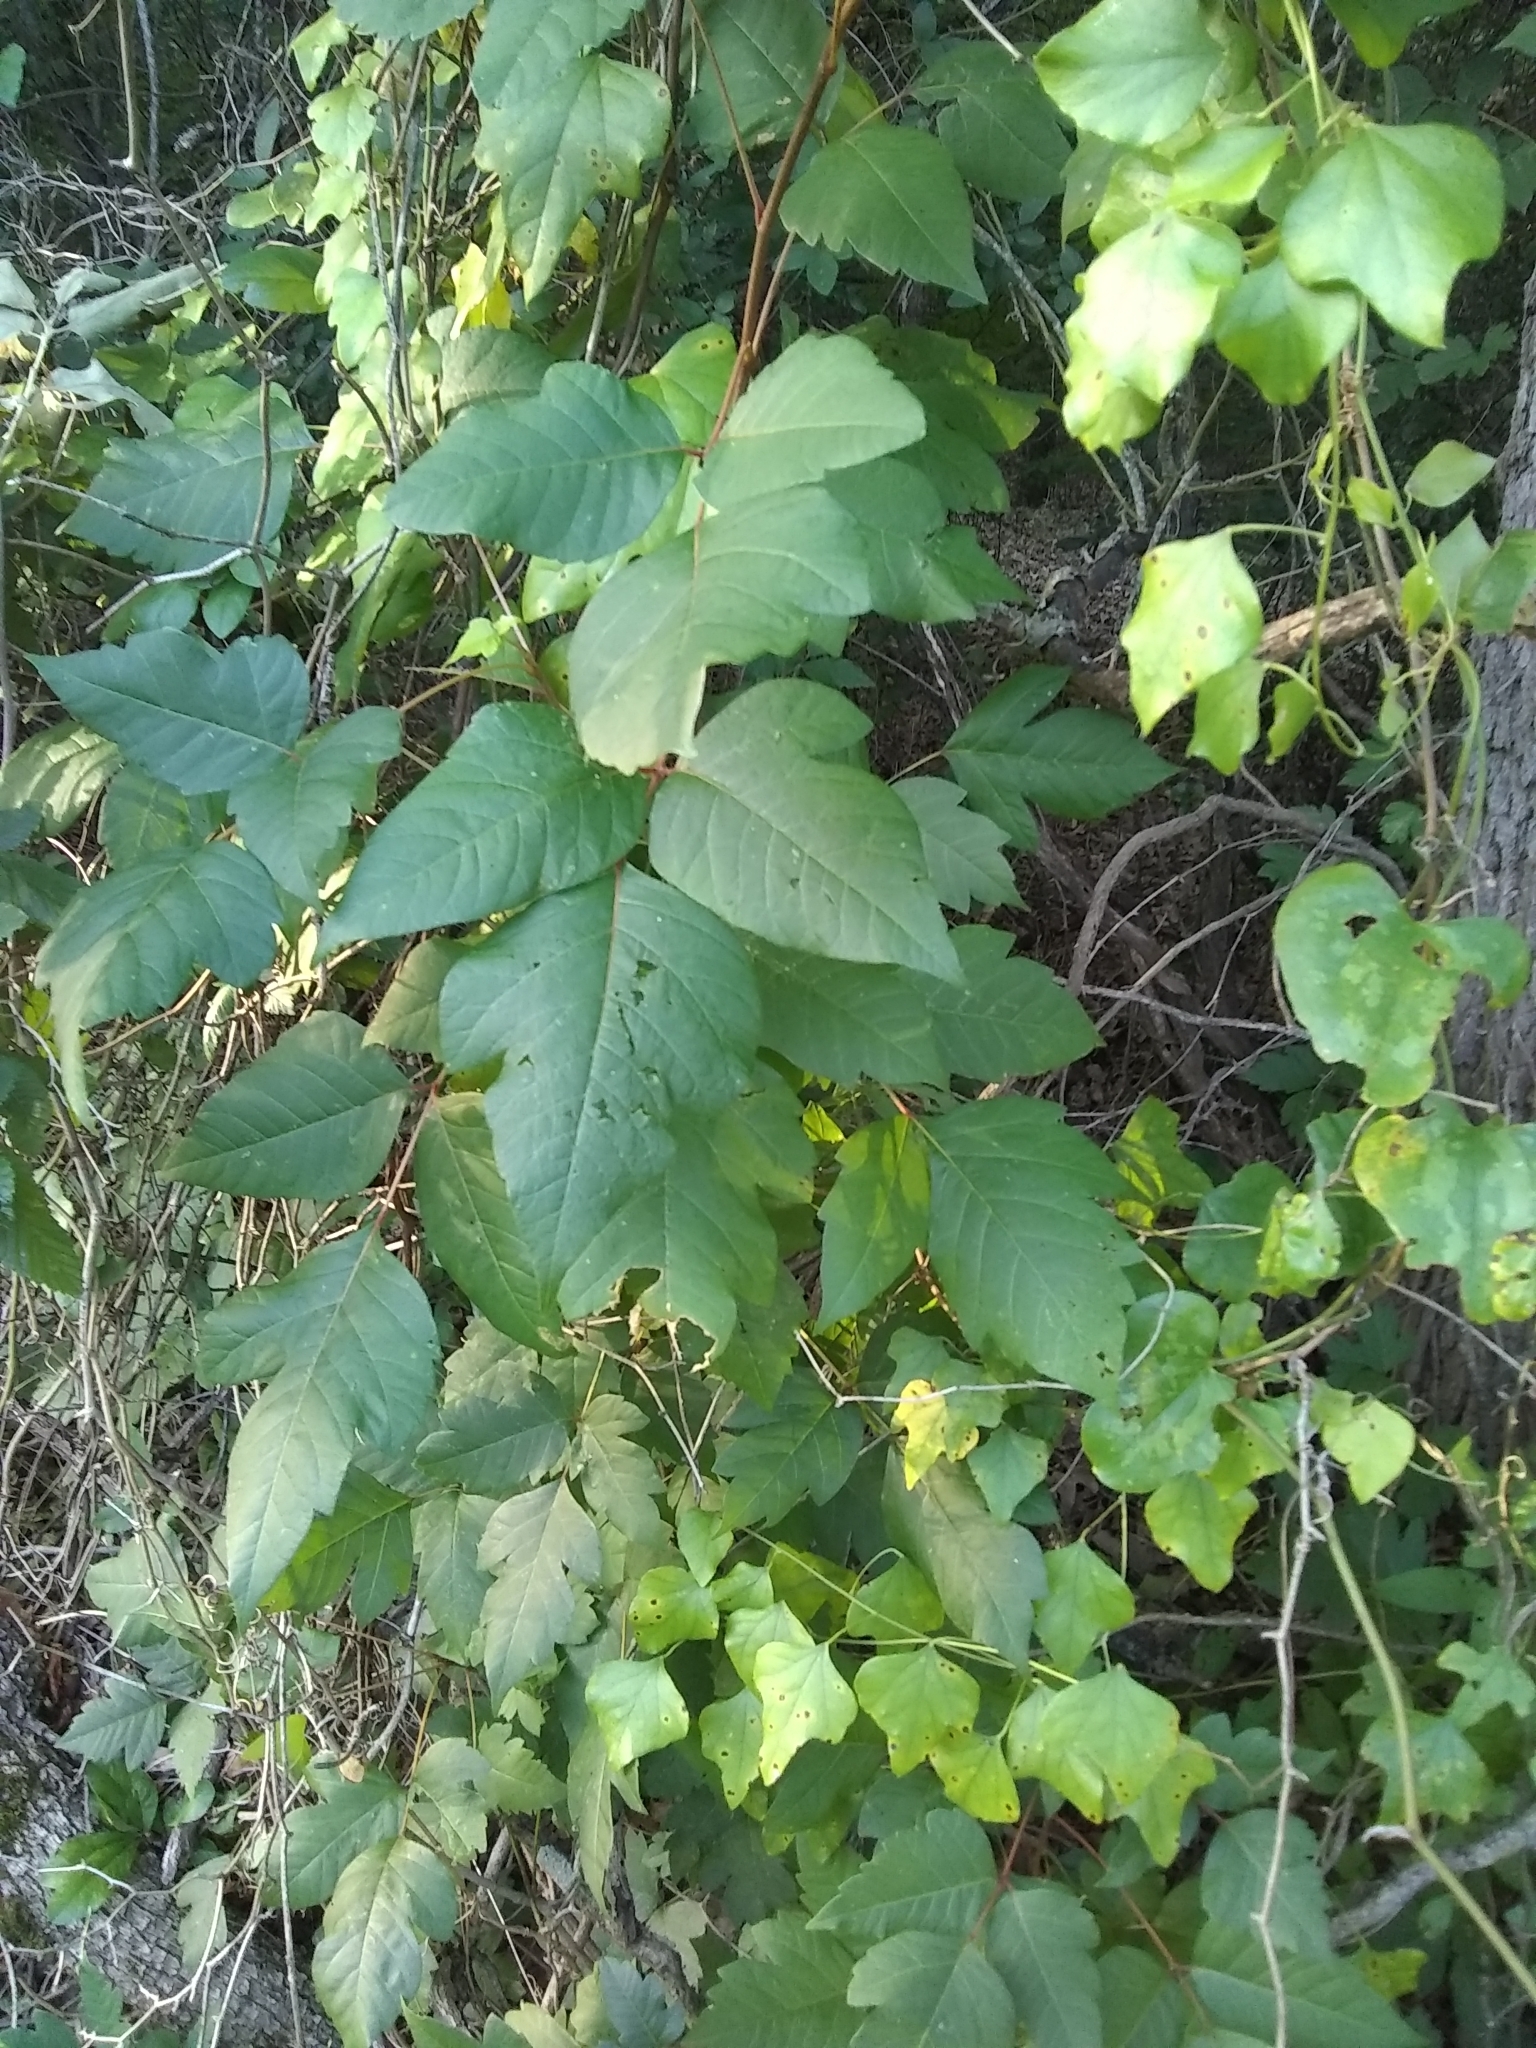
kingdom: Plantae
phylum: Tracheophyta
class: Magnoliopsida
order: Sapindales
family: Anacardiaceae
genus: Toxicodendron
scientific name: Toxicodendron radicans
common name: Poison ivy
